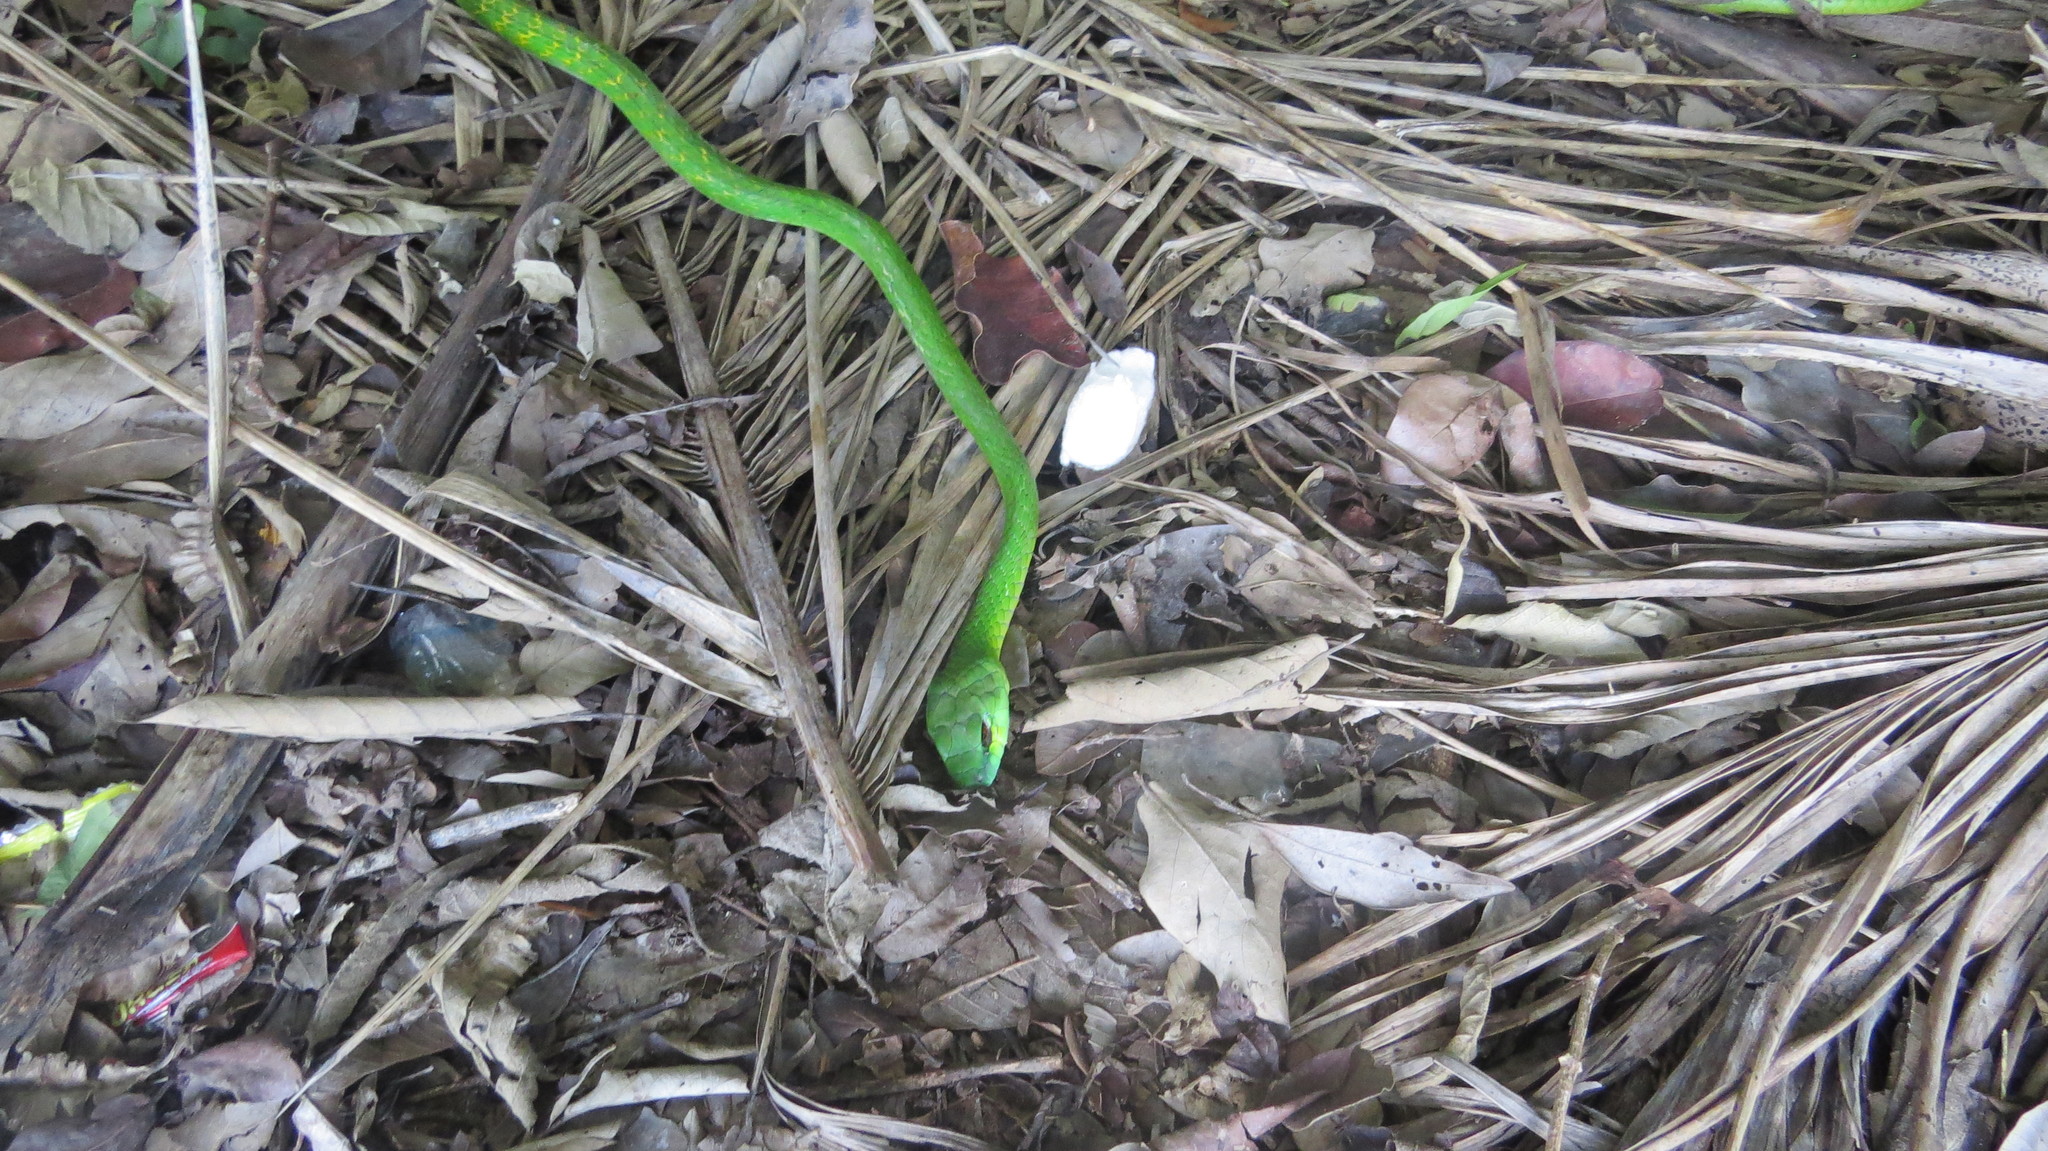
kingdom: Animalia
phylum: Chordata
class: Squamata
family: Colubridae
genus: Leptophis
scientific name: Leptophis ahaetulla
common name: Parrot snake
